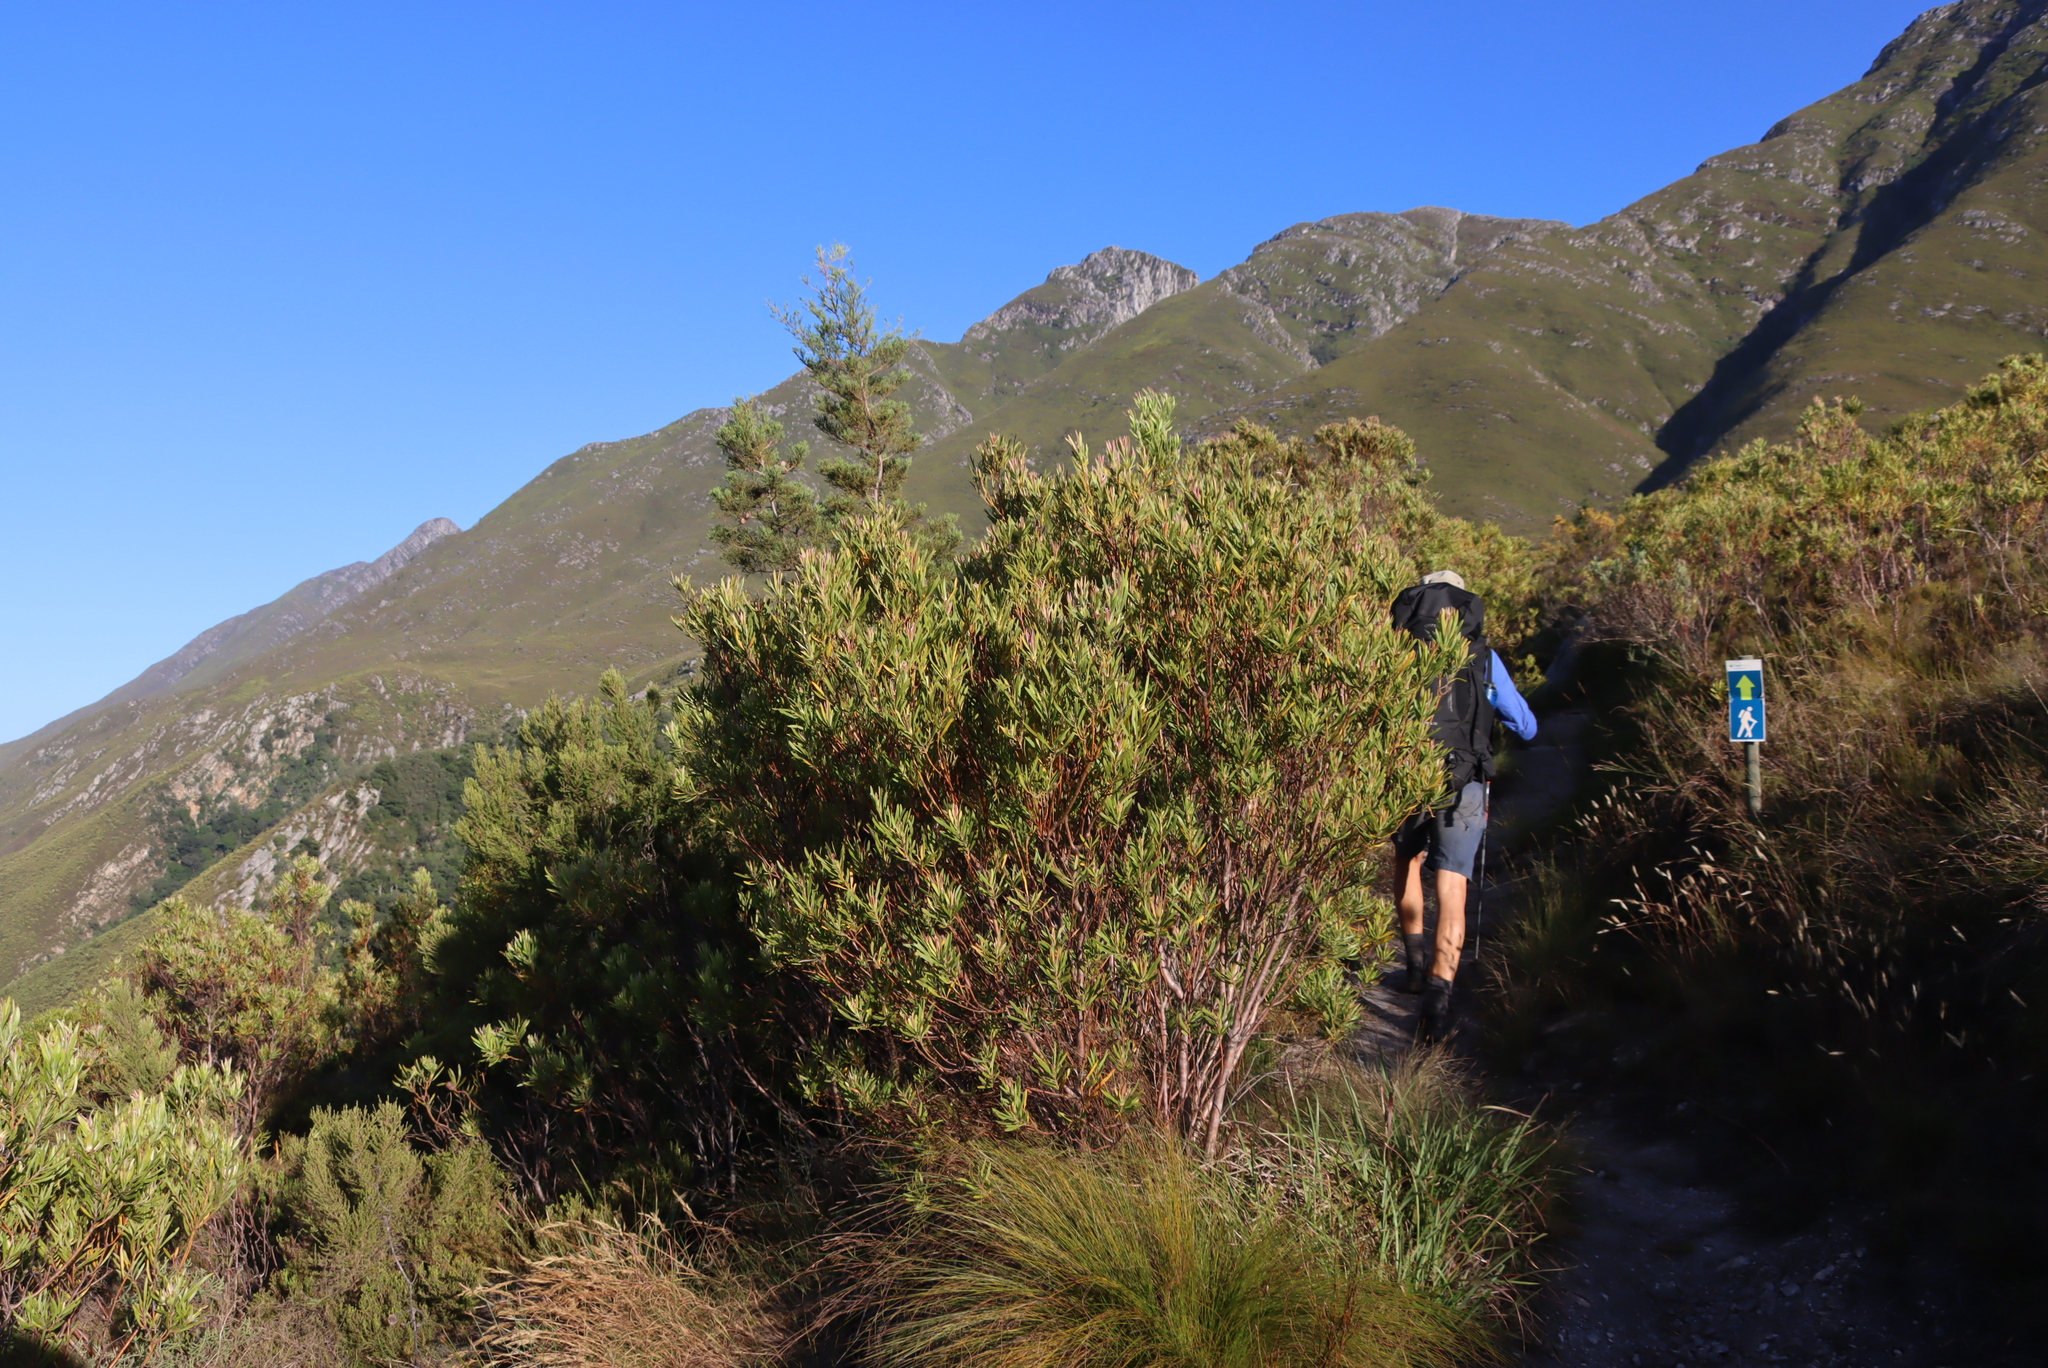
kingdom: Plantae
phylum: Tracheophyta
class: Pinopsida
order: Pinales
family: Cupressaceae
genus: Widdringtonia
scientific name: Widdringtonia nodiflora
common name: Cape cypress
